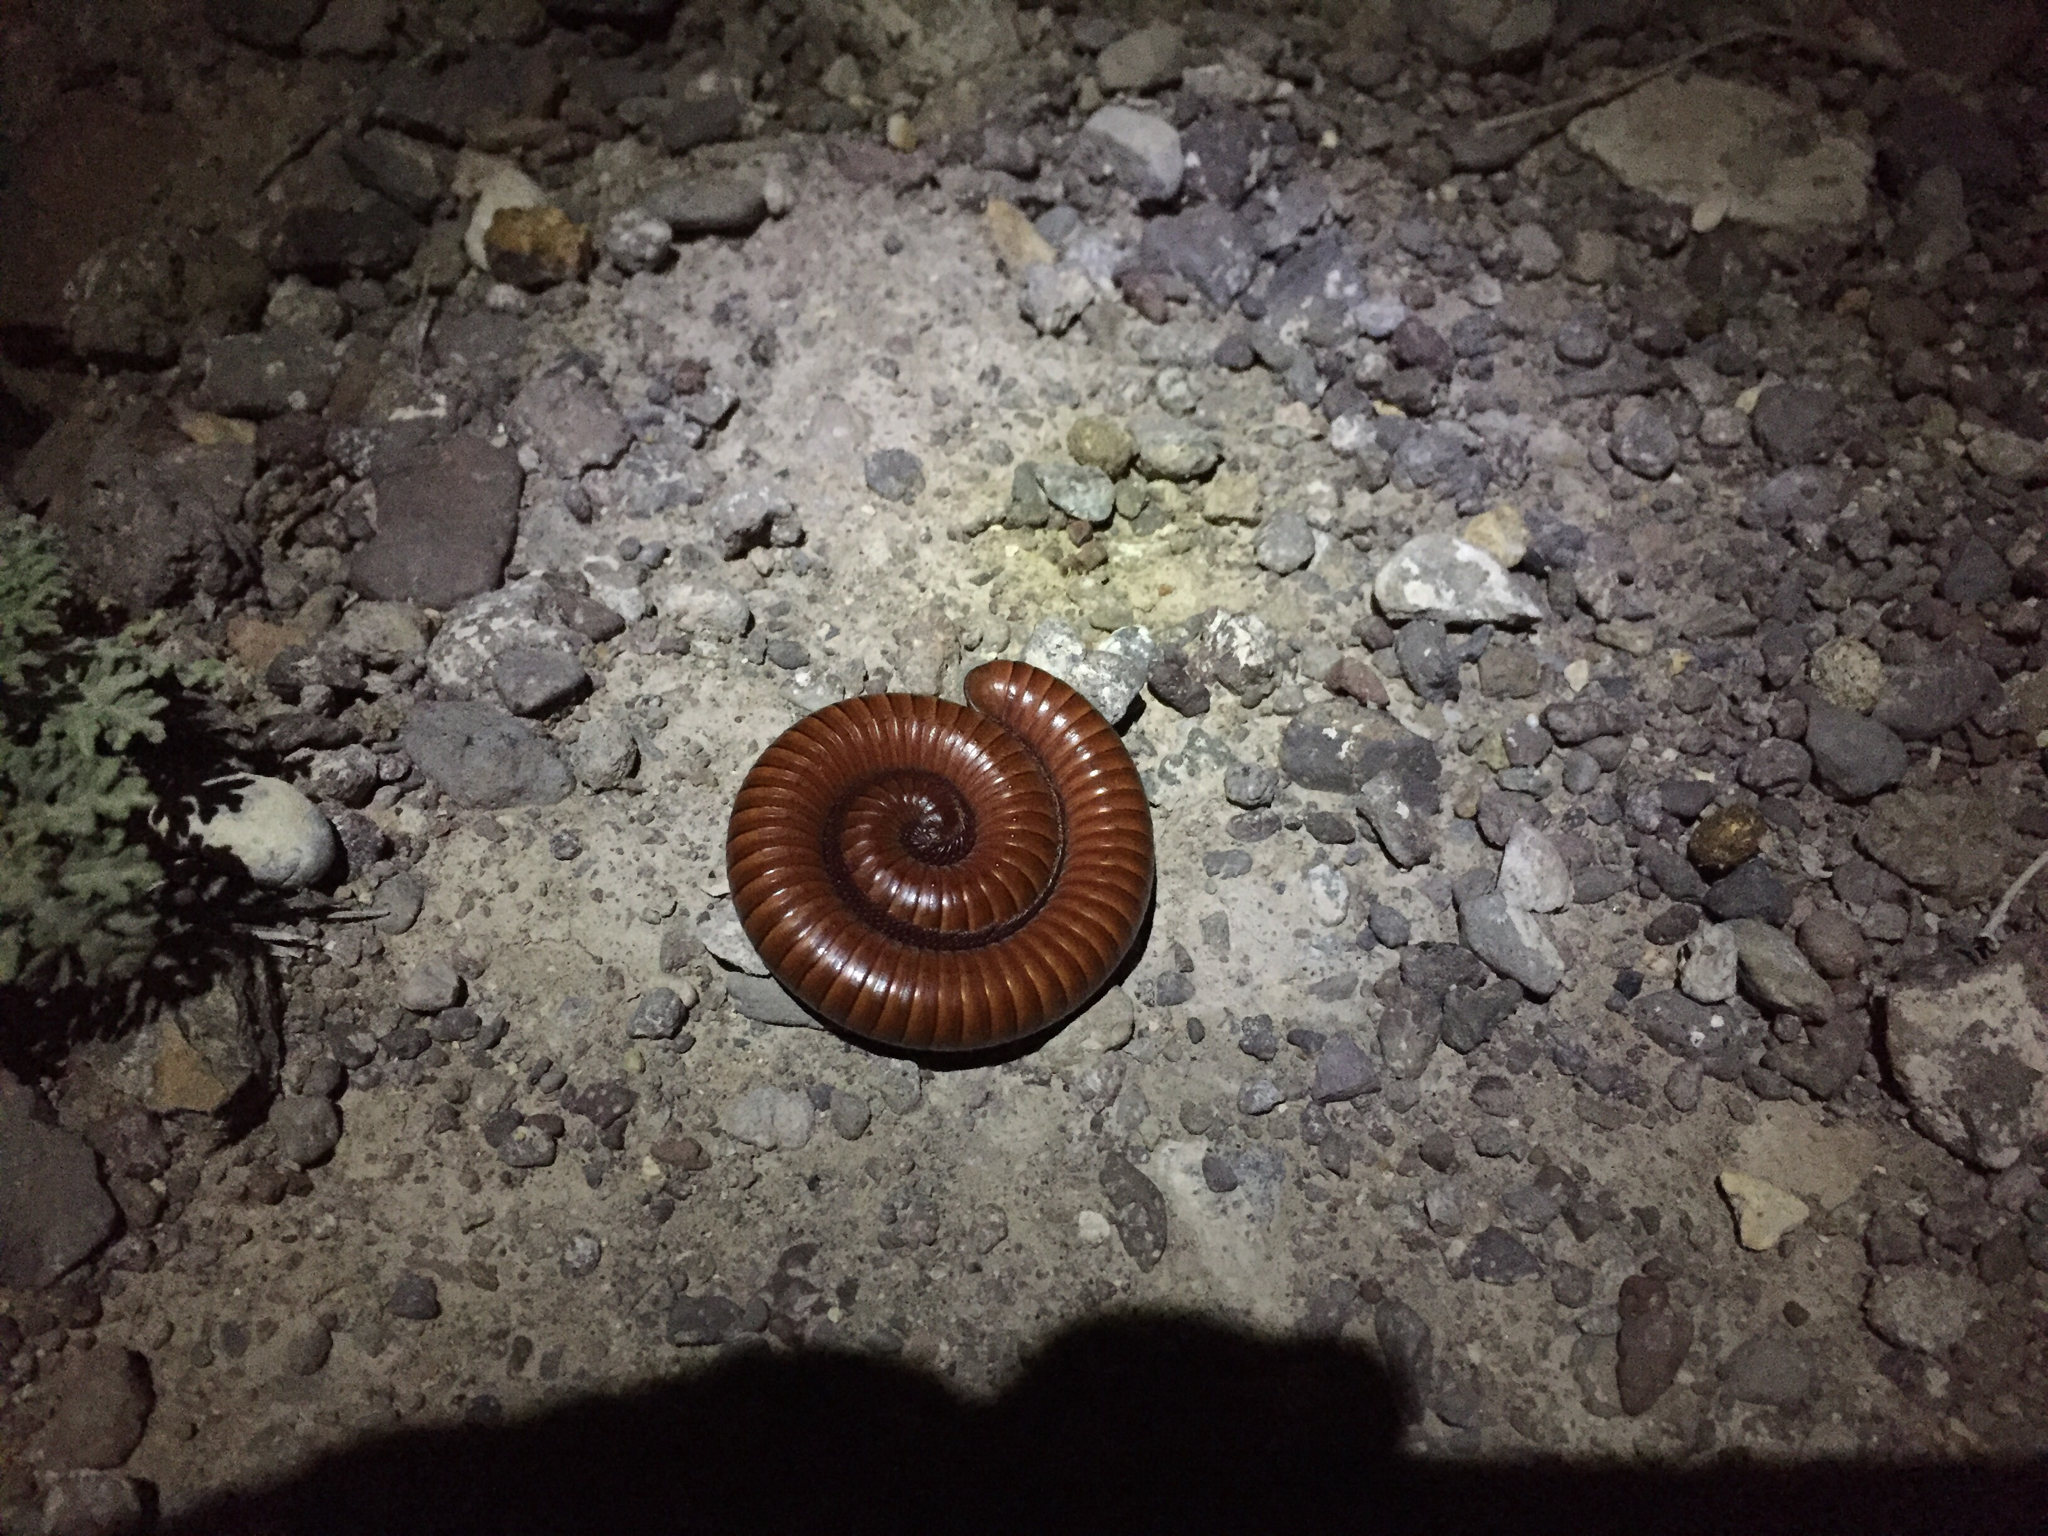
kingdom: Animalia
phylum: Arthropoda
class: Diplopoda
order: Spirostreptida
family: Spirostreptidae
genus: Orthoporus
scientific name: Orthoporus ornatus
